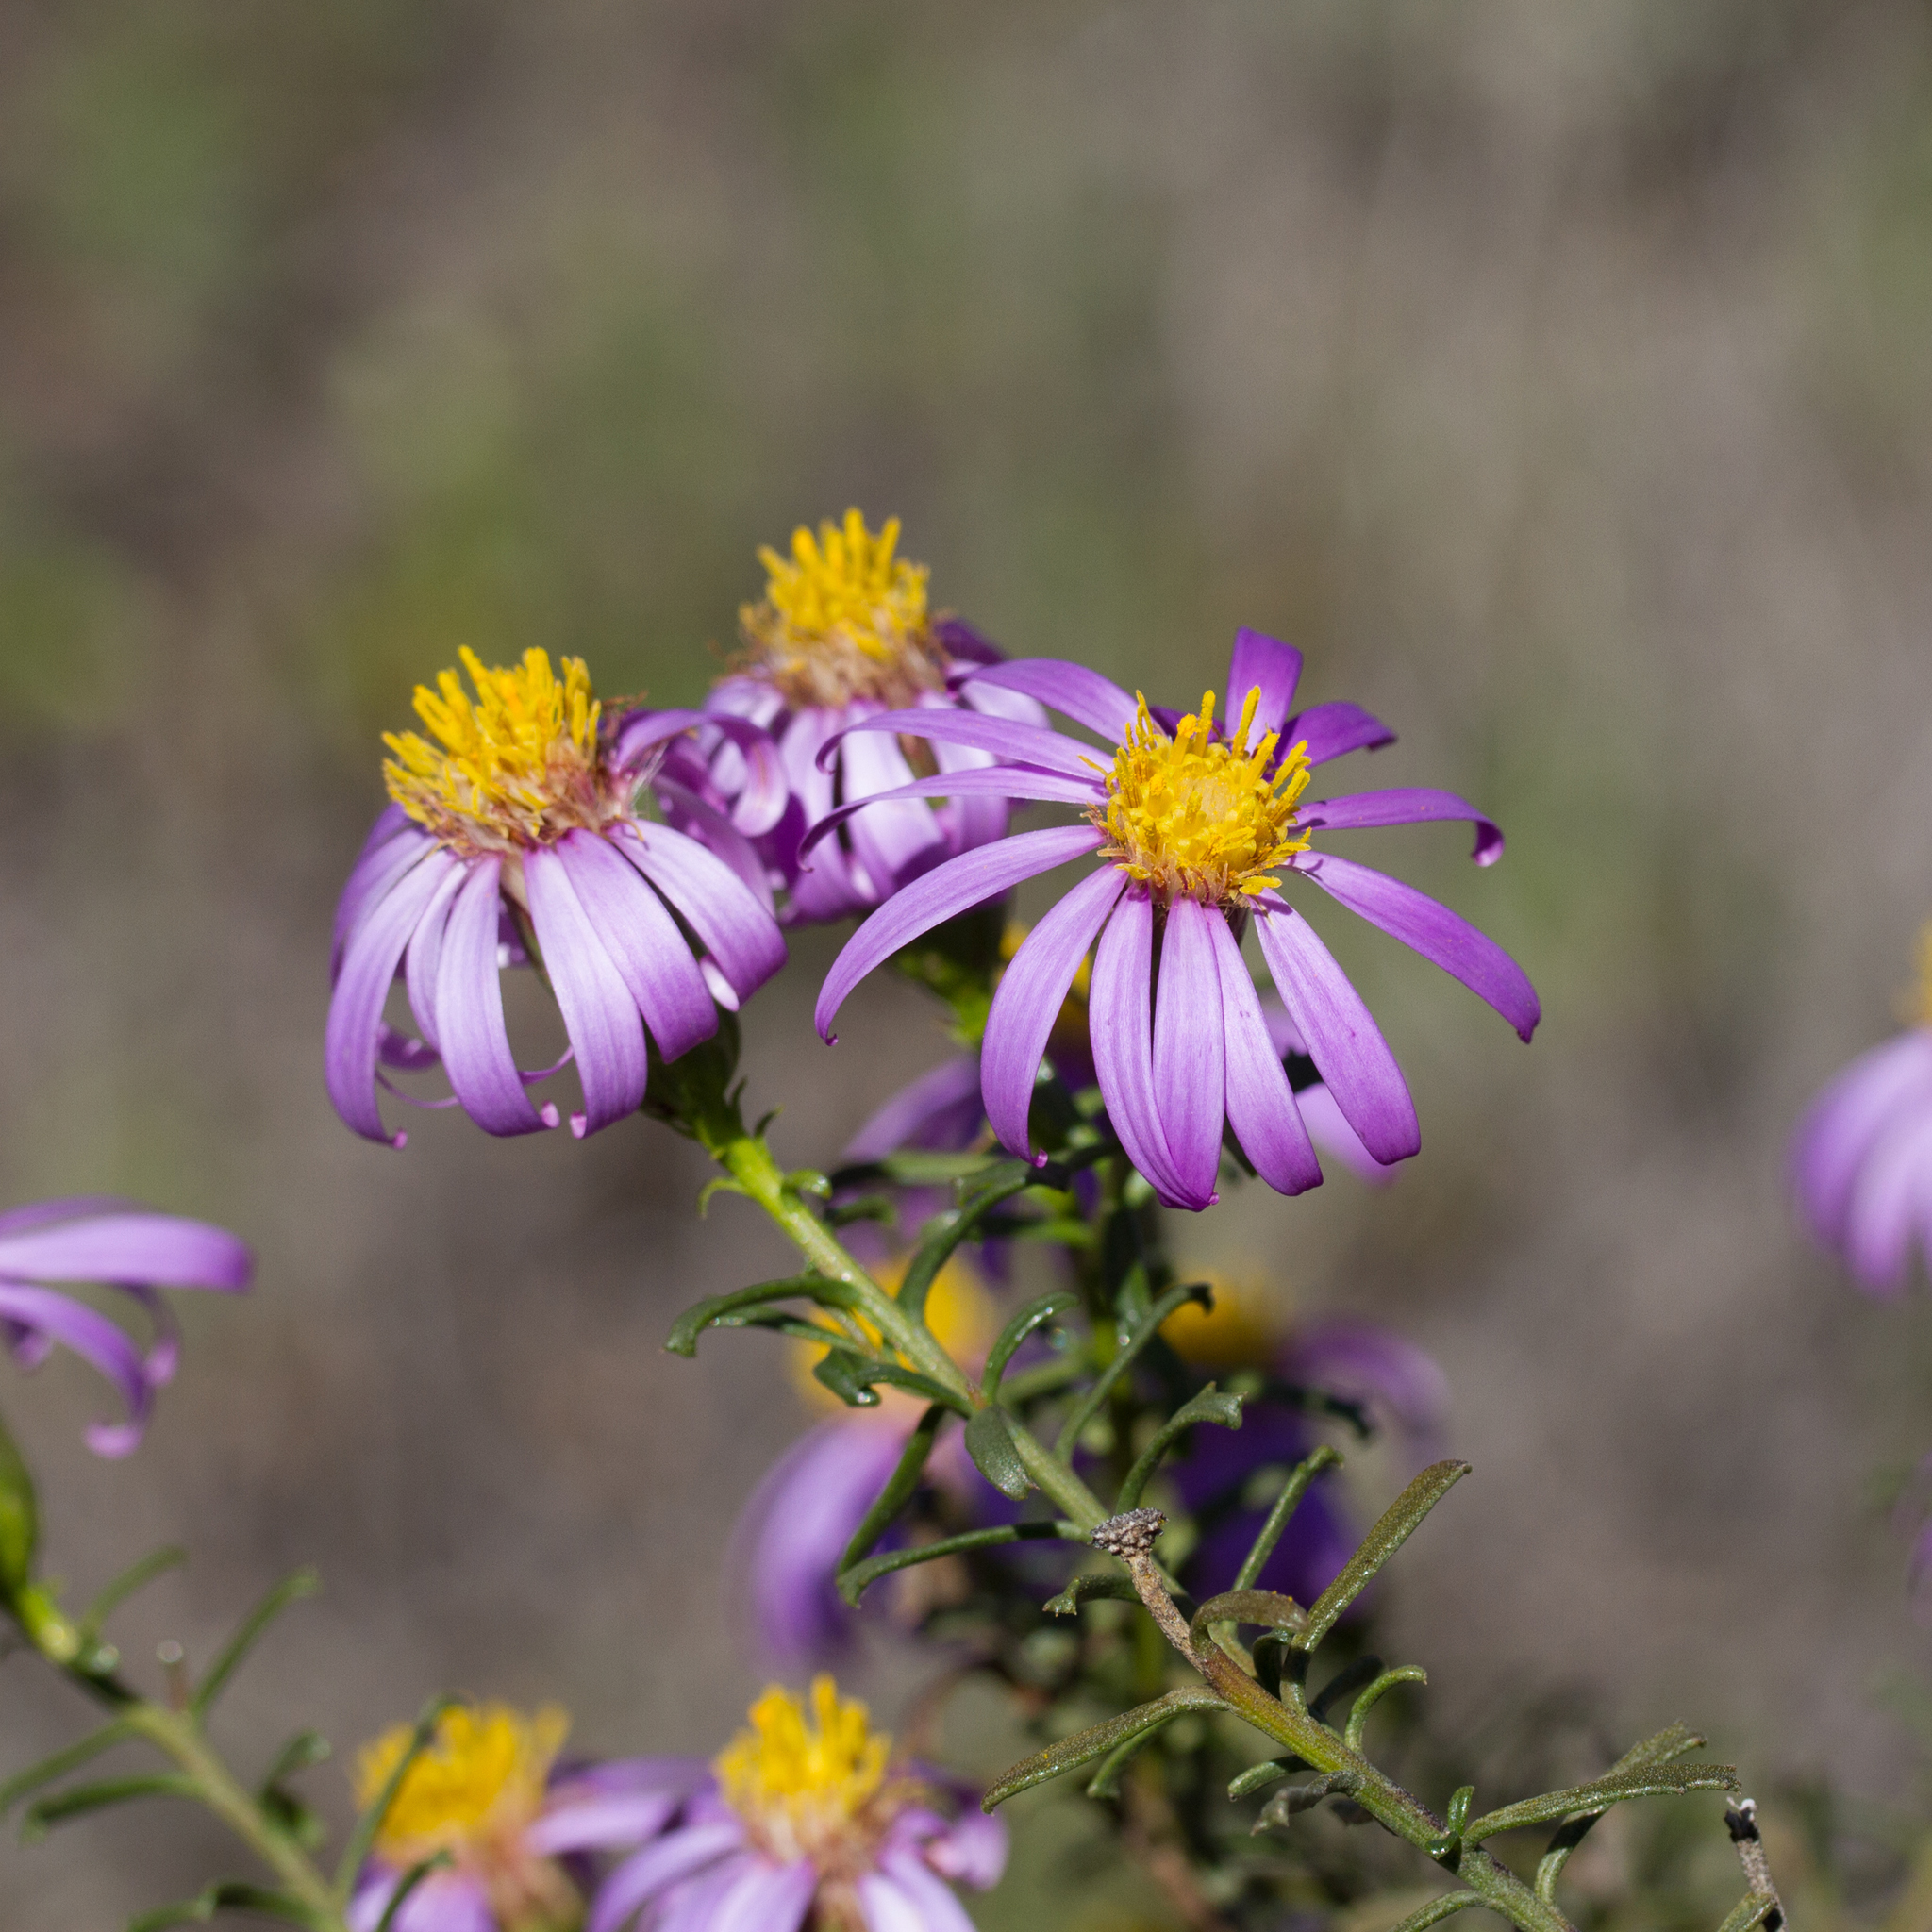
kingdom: Plantae
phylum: Tracheophyta
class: Magnoliopsida
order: Asterales
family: Asteraceae
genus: Walsholaria
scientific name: Walsholaria magniflora
